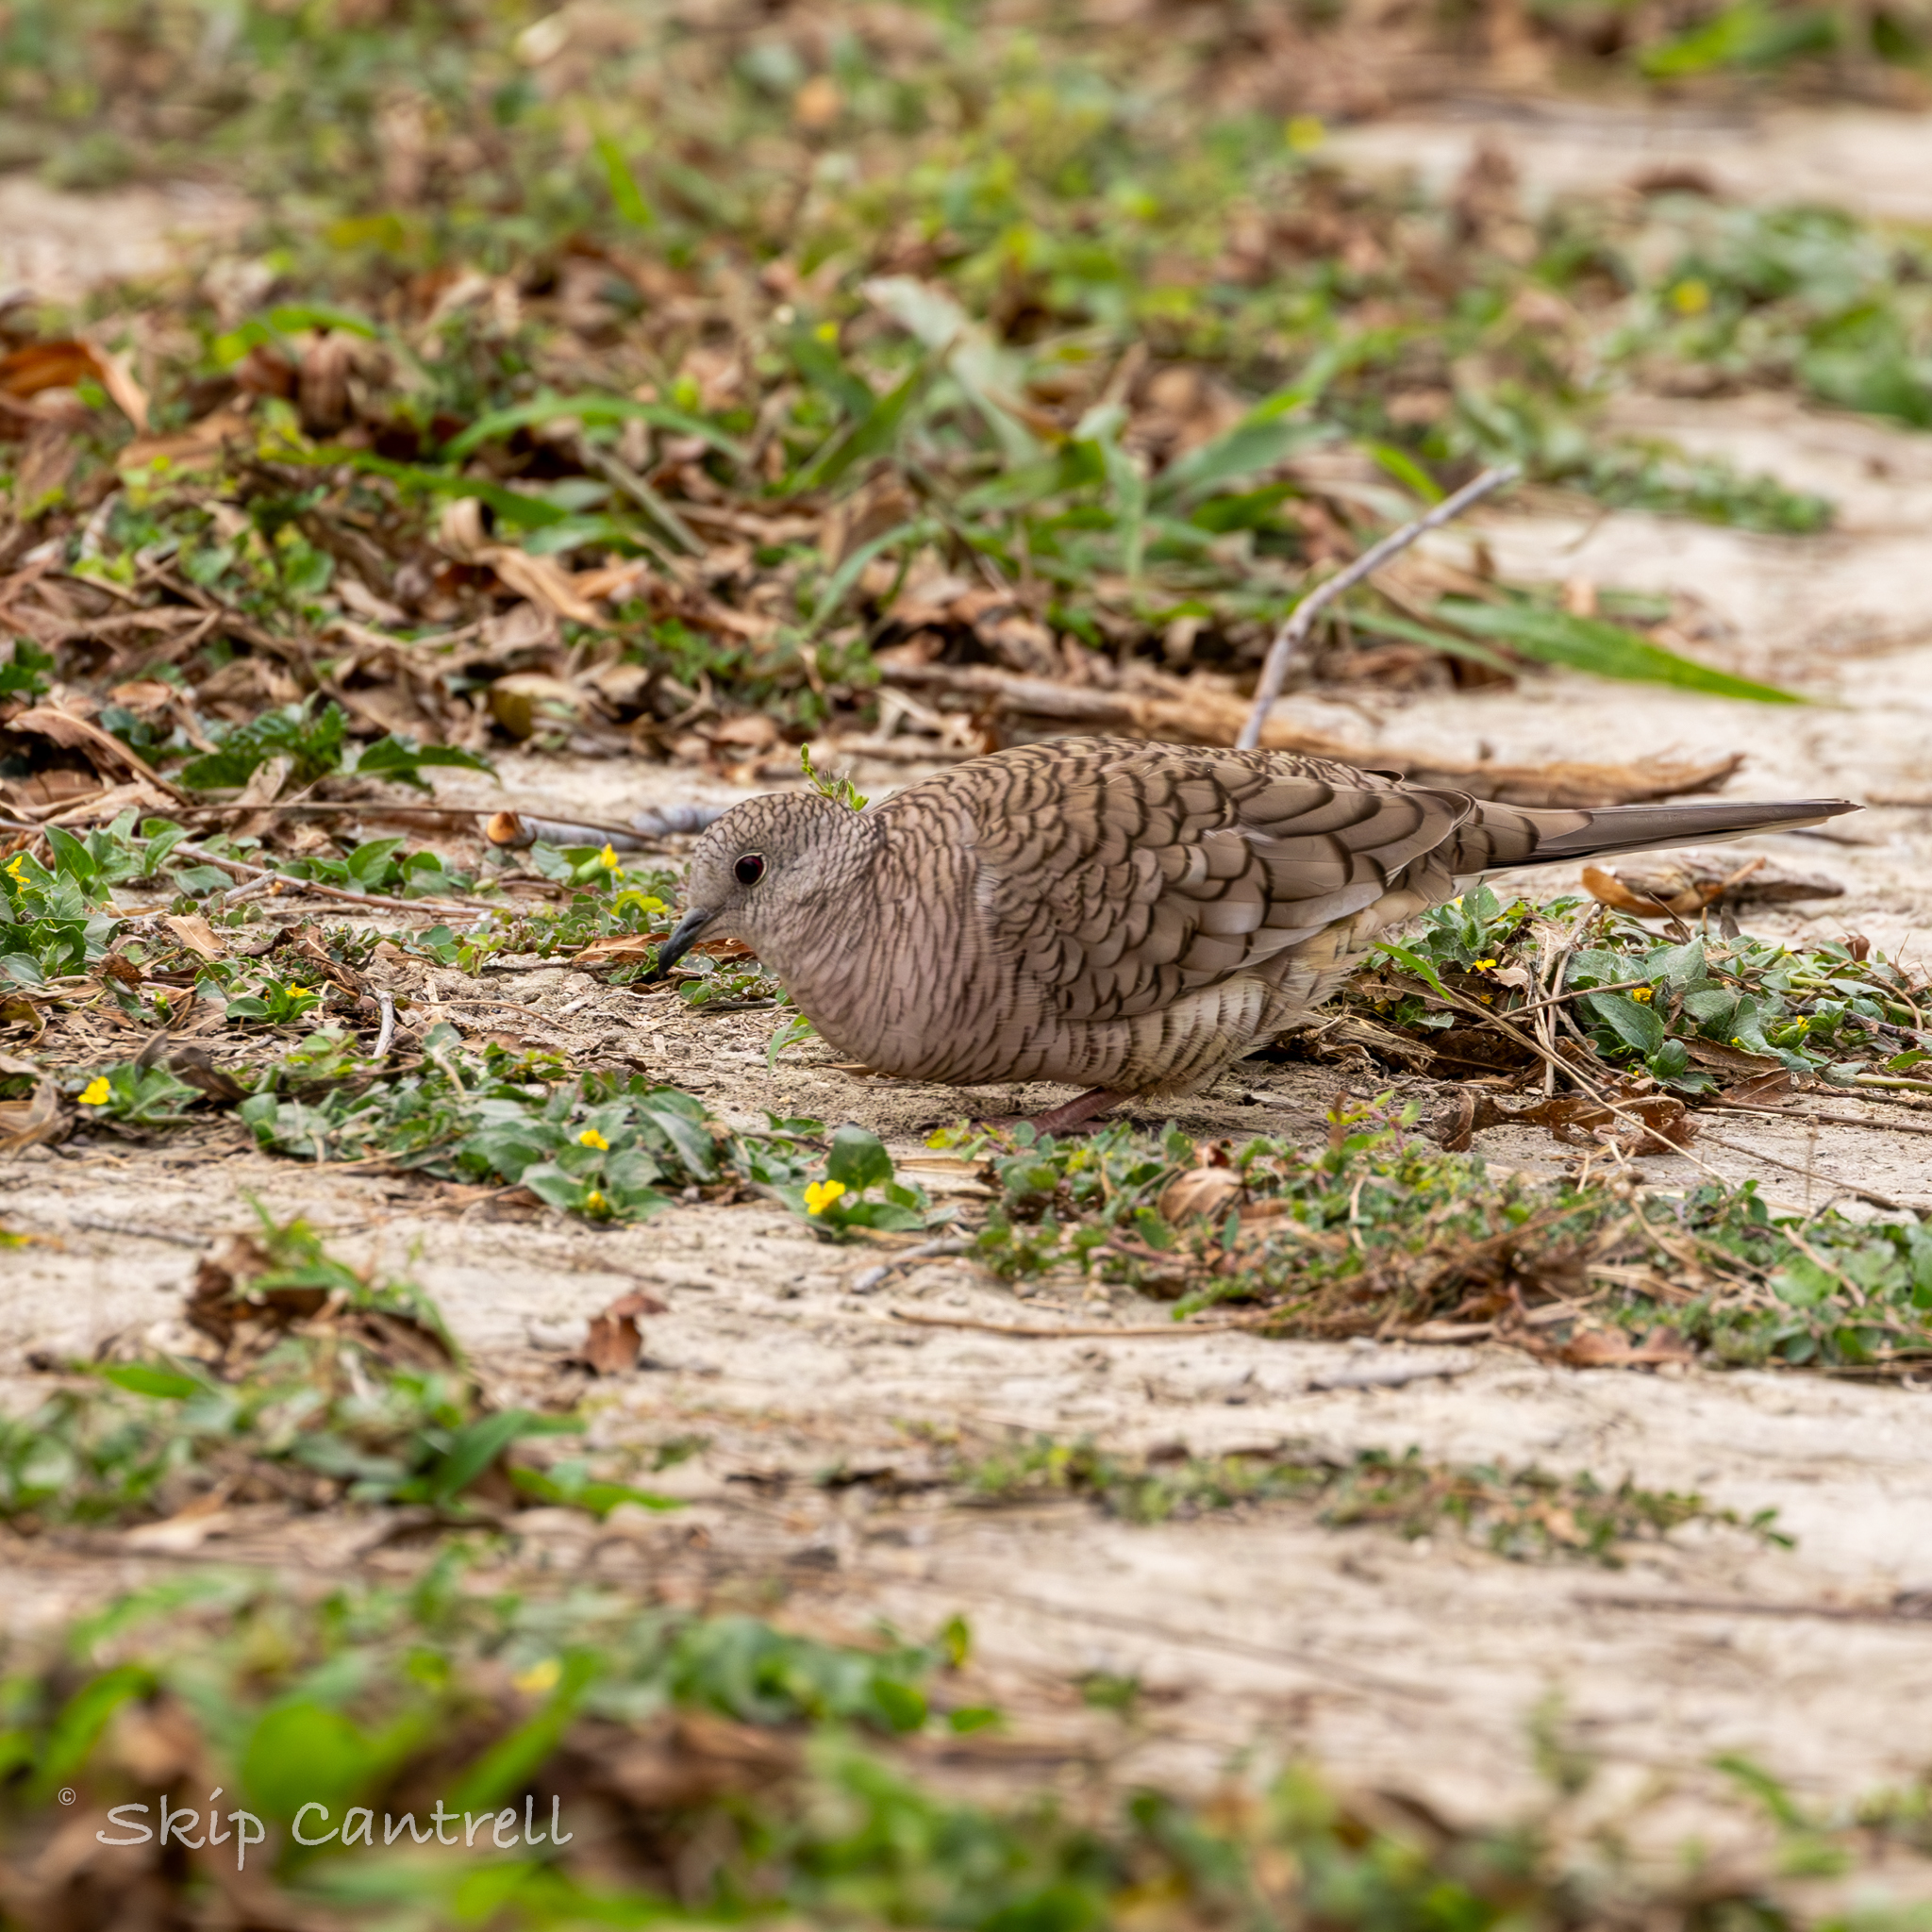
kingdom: Animalia
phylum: Chordata
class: Aves
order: Columbiformes
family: Columbidae
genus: Columbina
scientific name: Columbina inca
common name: Inca dove
